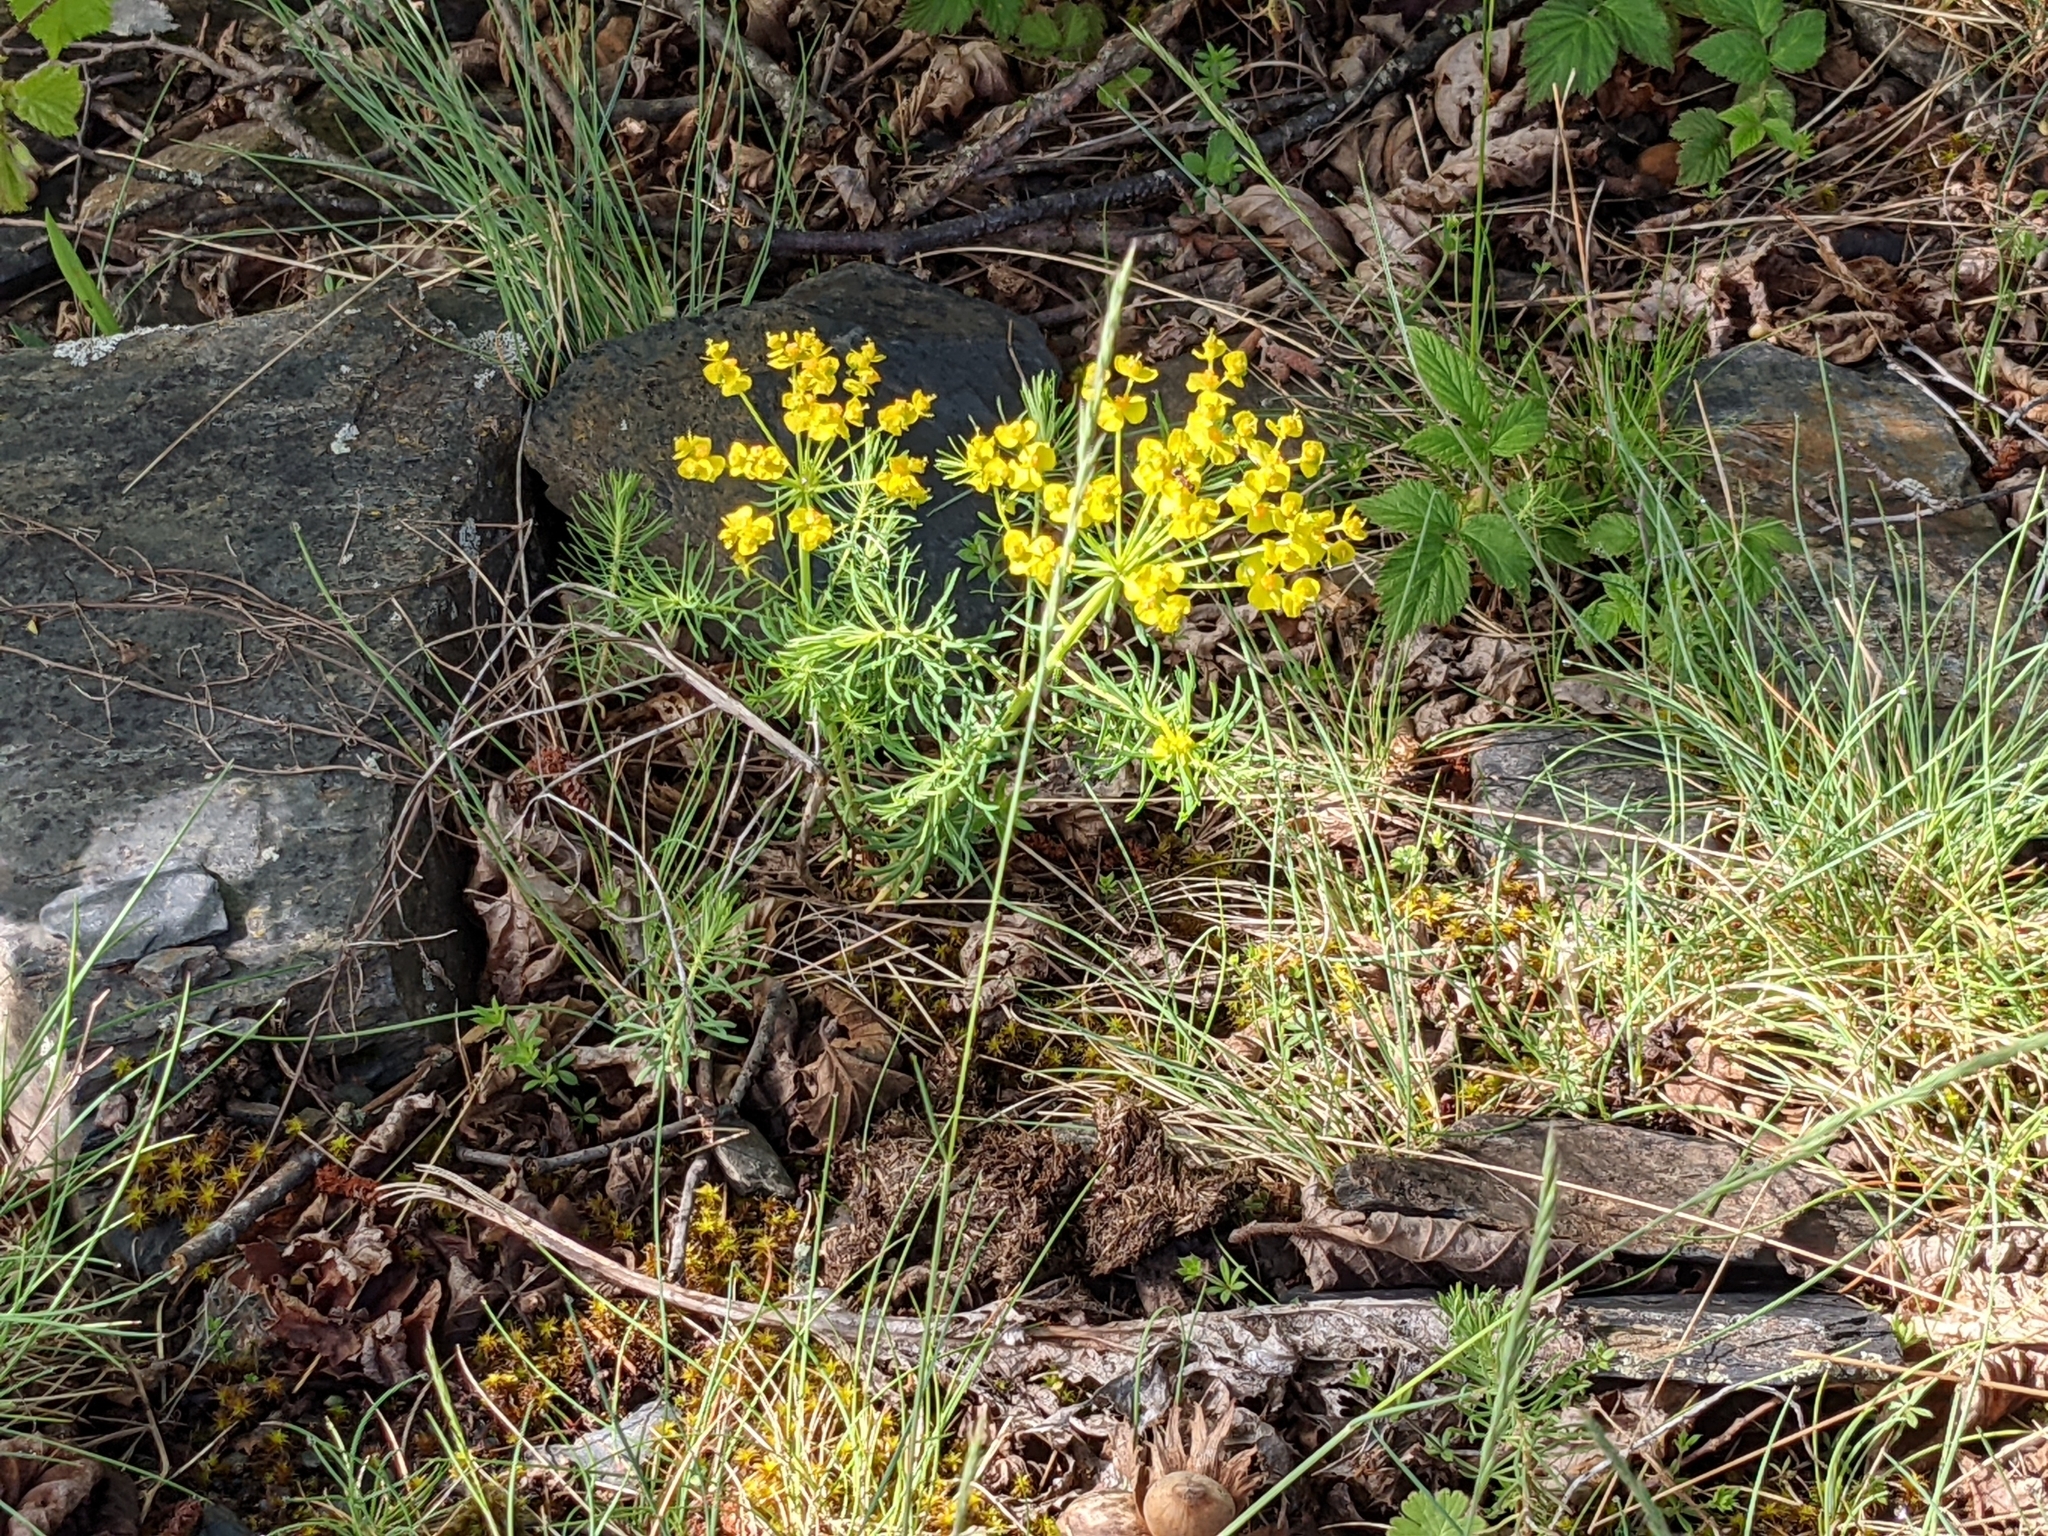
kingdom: Plantae
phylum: Tracheophyta
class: Magnoliopsida
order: Malpighiales
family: Euphorbiaceae
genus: Euphorbia
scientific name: Euphorbia cyparissias
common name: Cypress spurge
